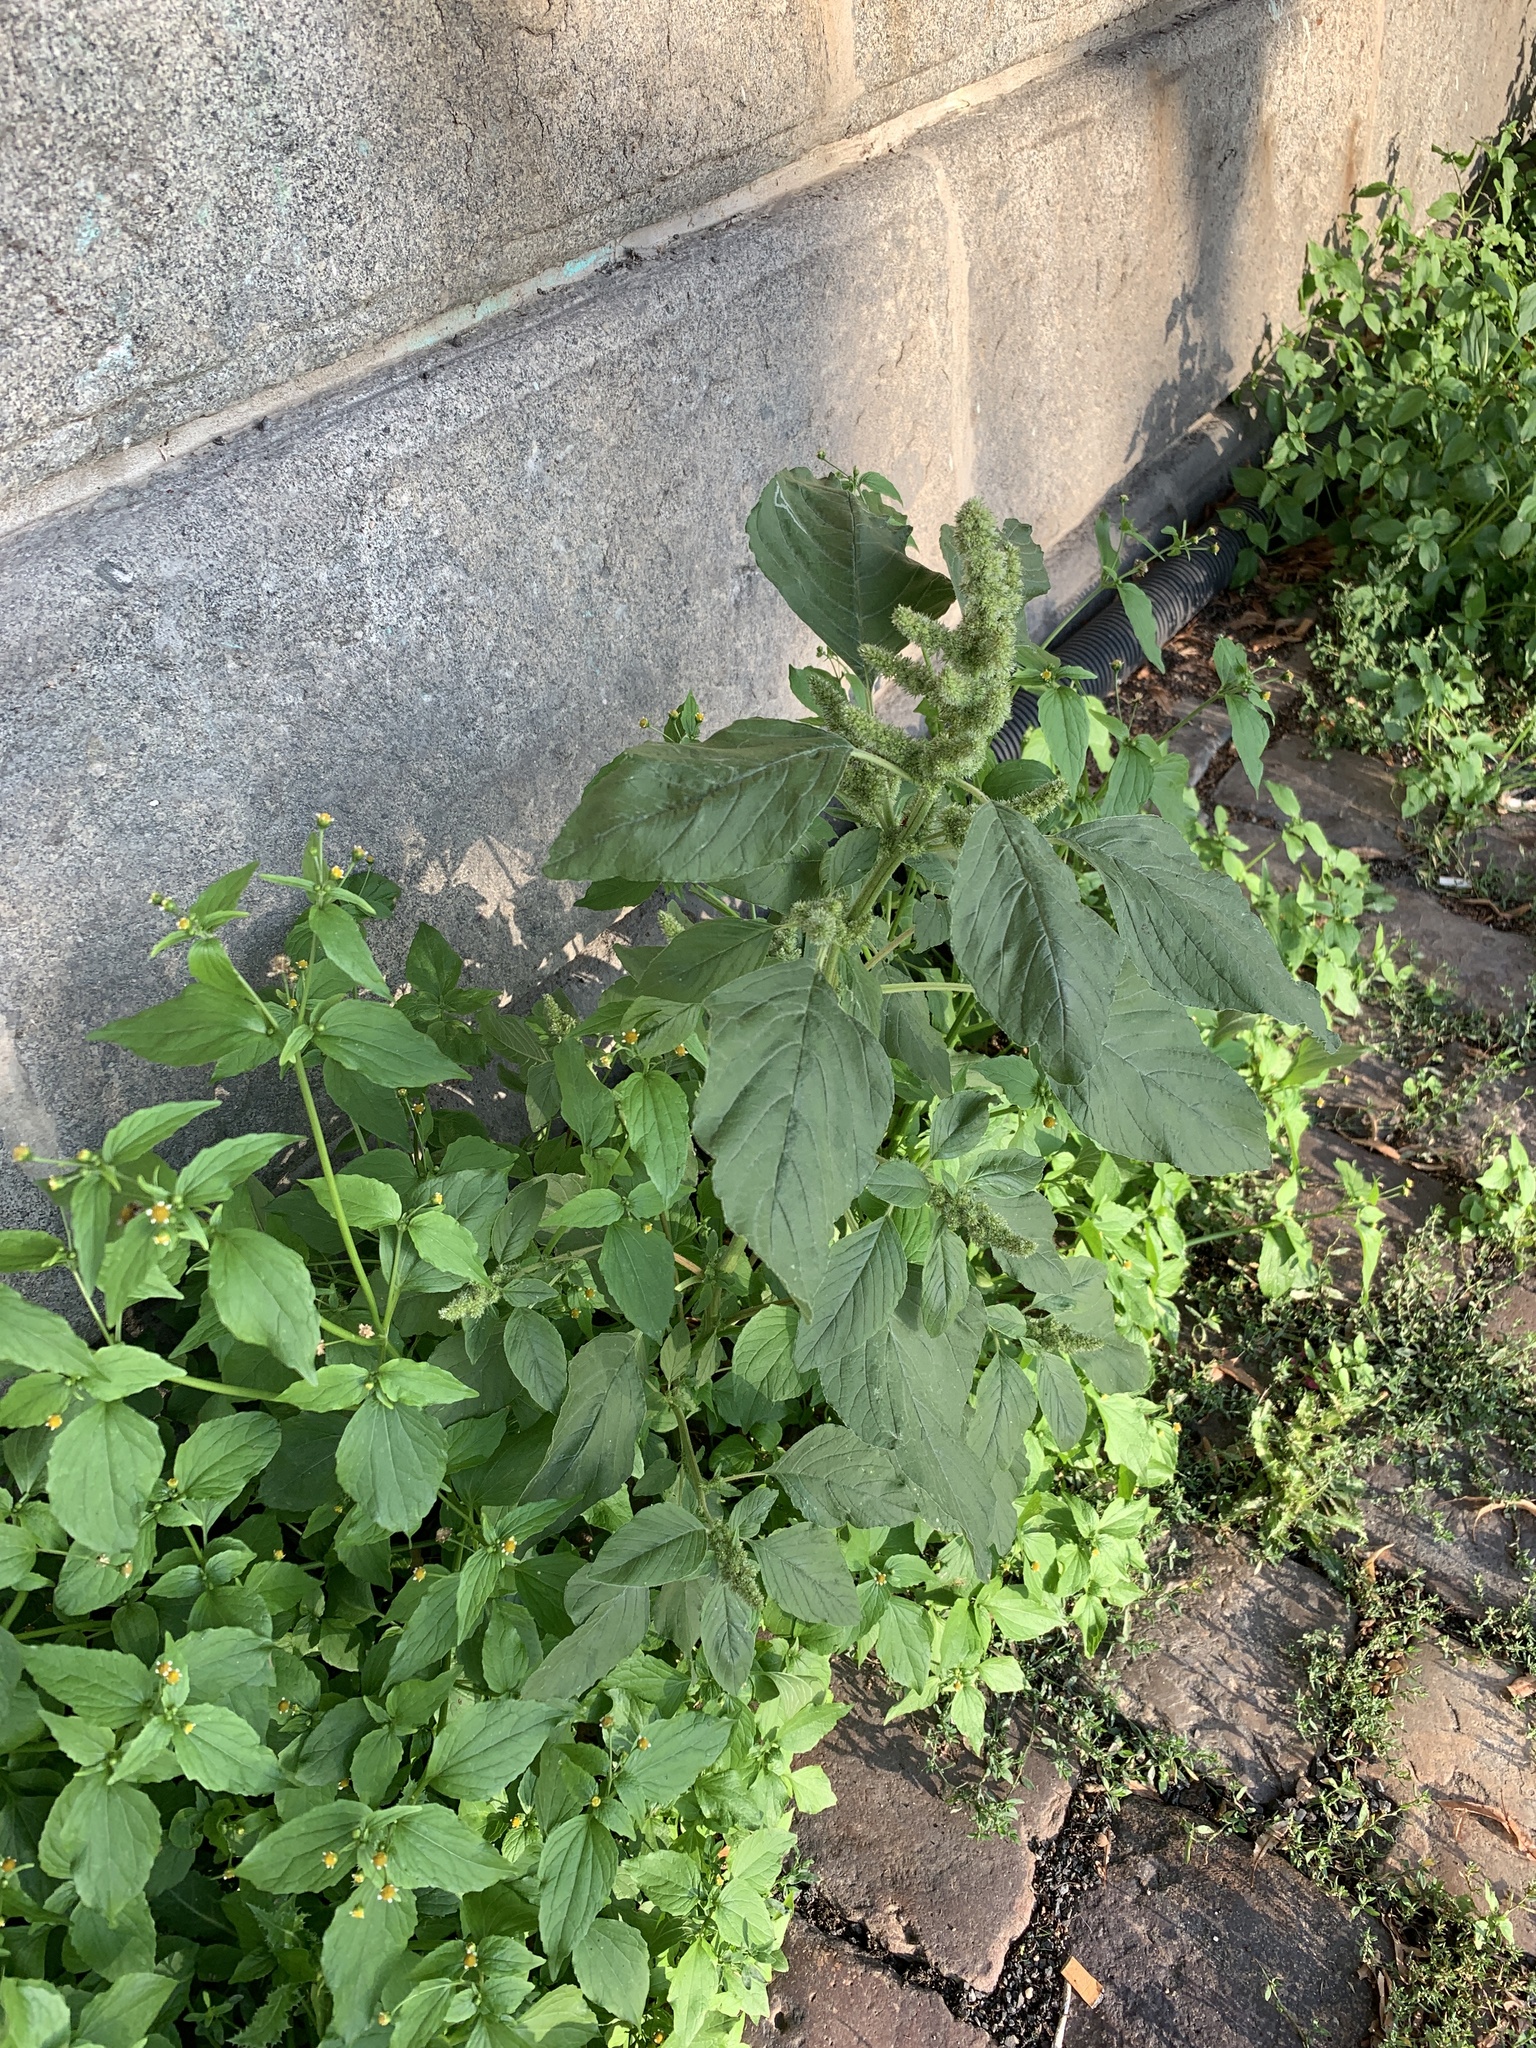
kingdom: Plantae
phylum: Tracheophyta
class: Magnoliopsida
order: Caryophyllales
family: Amaranthaceae
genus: Amaranthus
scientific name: Amaranthus retroflexus
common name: Redroot amaranth
